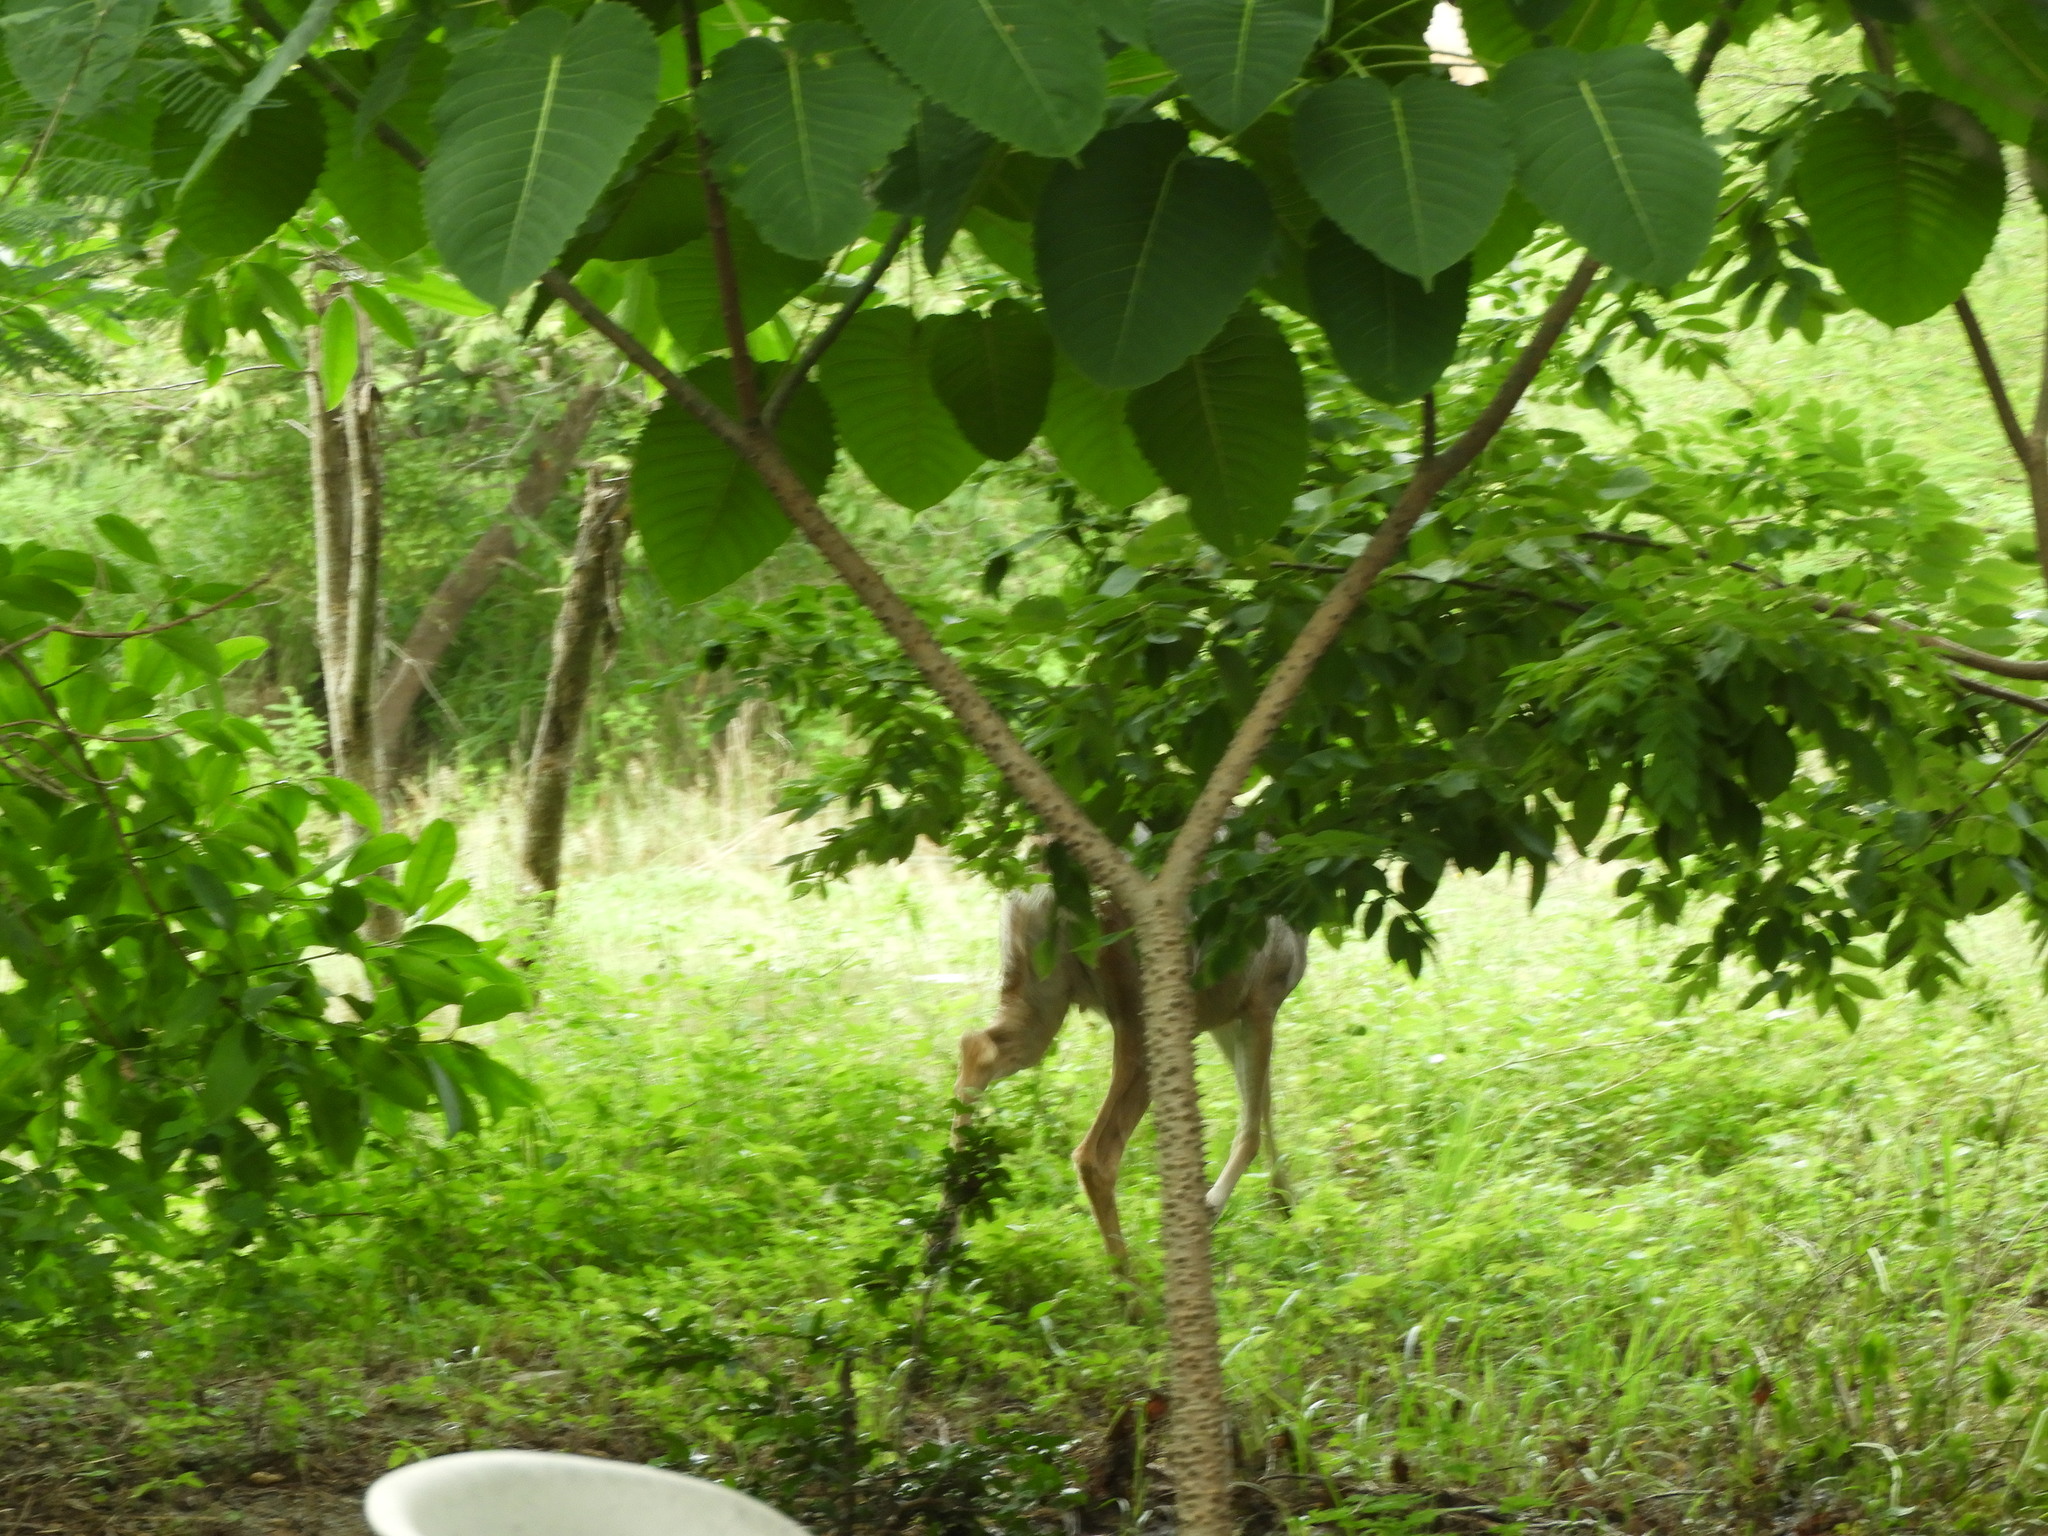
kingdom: Animalia
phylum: Chordata
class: Mammalia
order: Artiodactyla
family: Cervidae
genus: Odocoileus
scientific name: Odocoileus virginianus
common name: White-tailed deer
